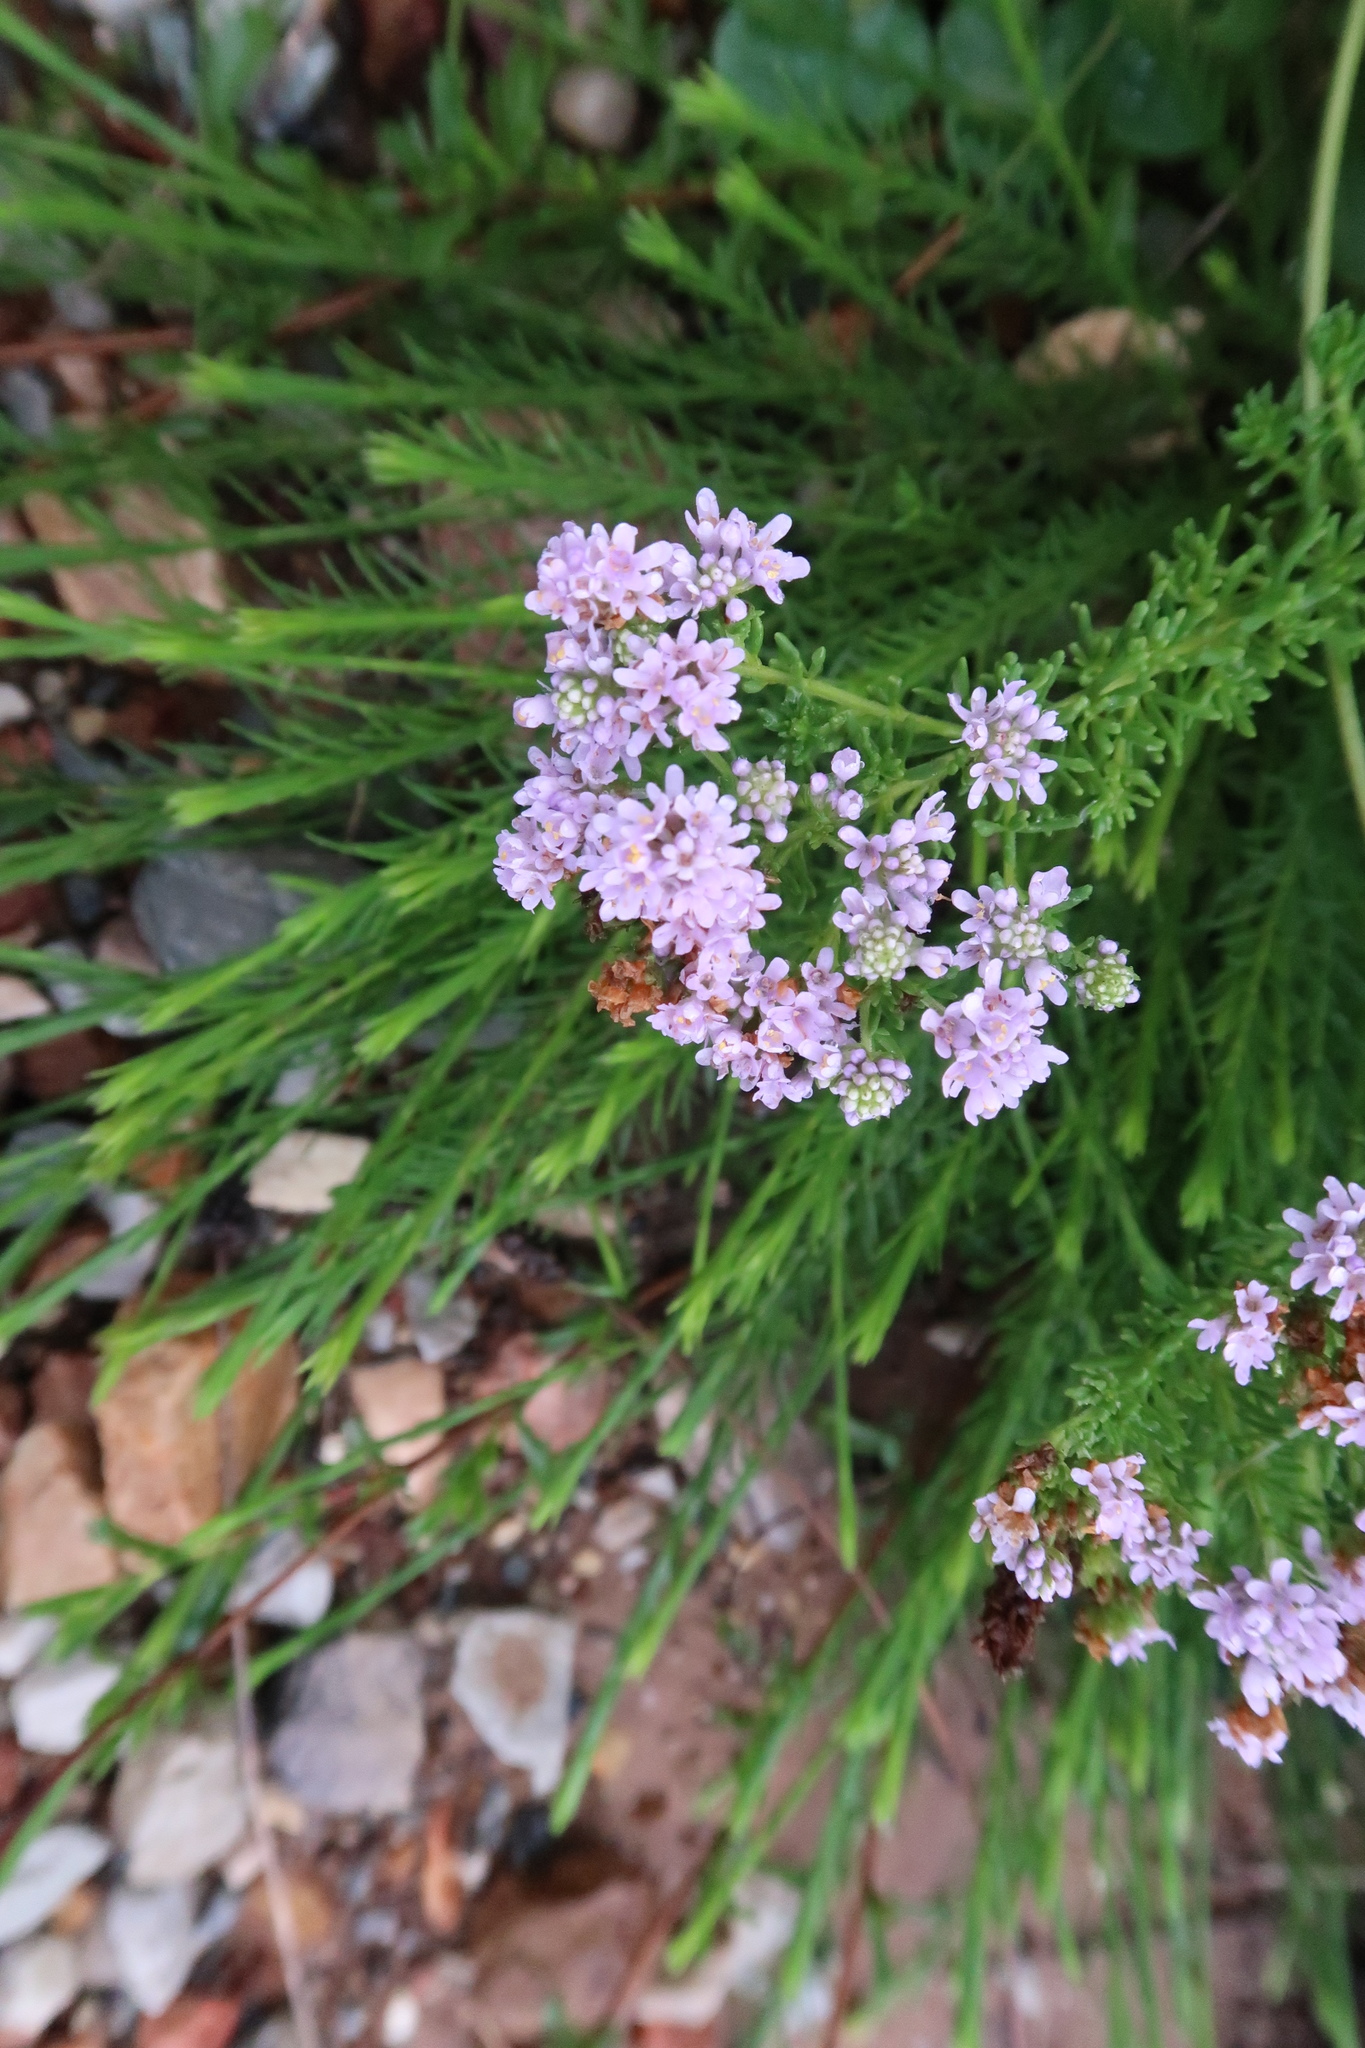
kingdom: Plantae
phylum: Tracheophyta
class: Magnoliopsida
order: Lamiales
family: Scrophulariaceae
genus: Selago
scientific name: Selago burchellii
